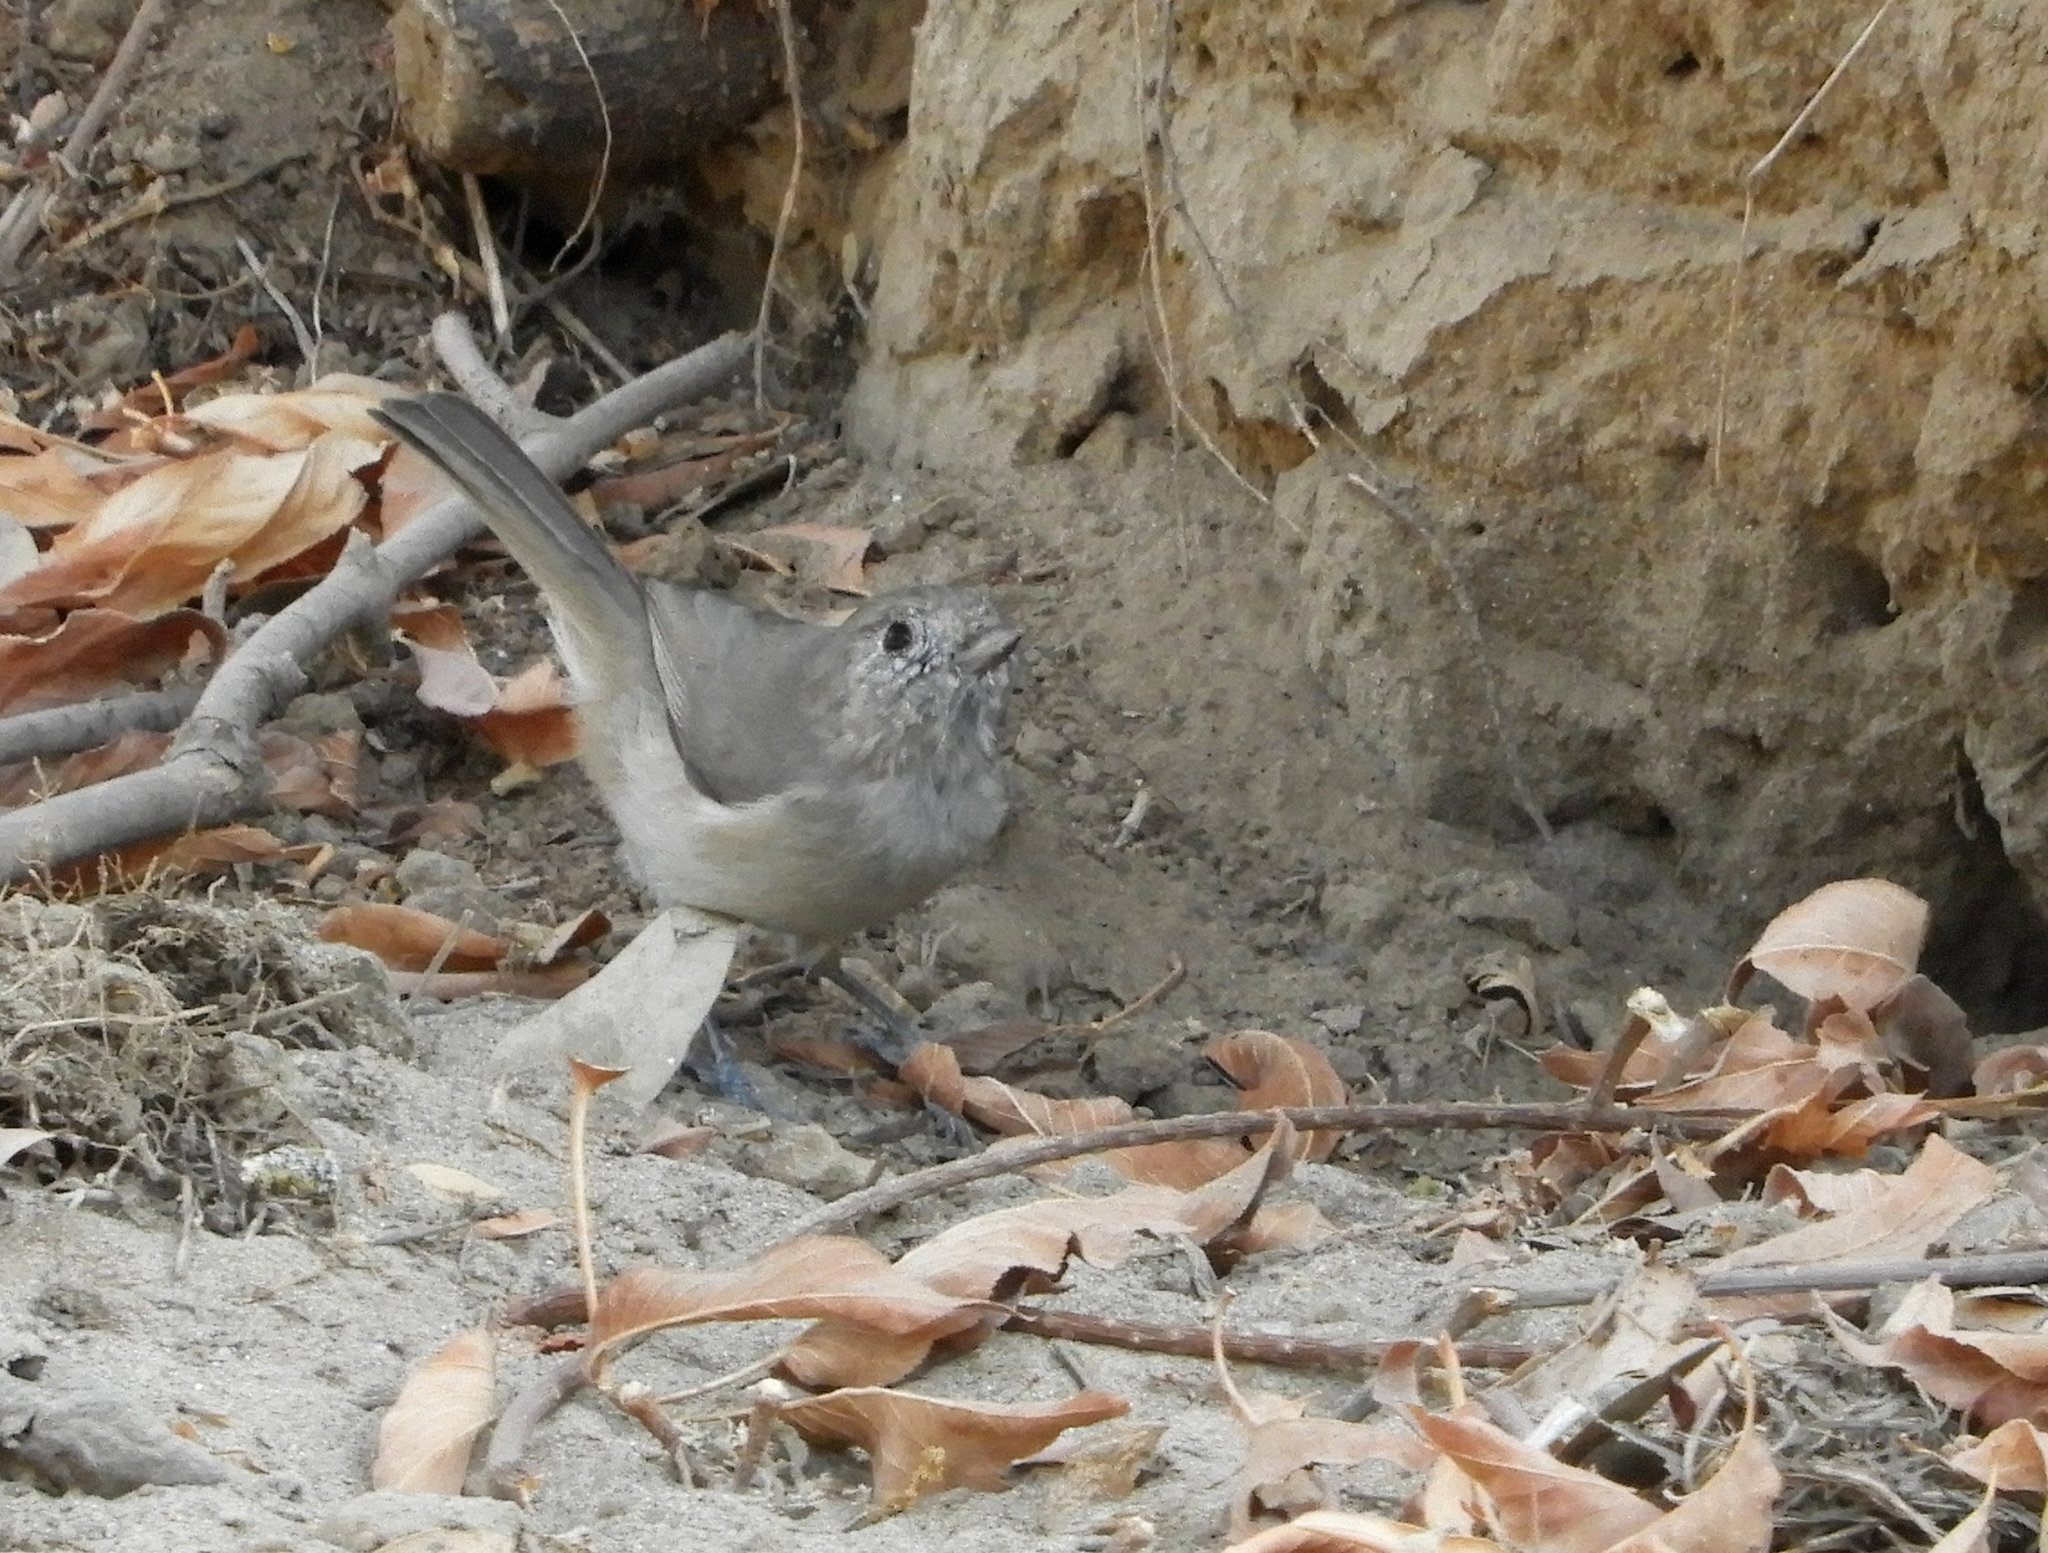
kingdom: Animalia
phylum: Chordata
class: Aves
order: Passeriformes
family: Paridae
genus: Baeolophus
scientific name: Baeolophus inornatus
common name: Oak titmouse
